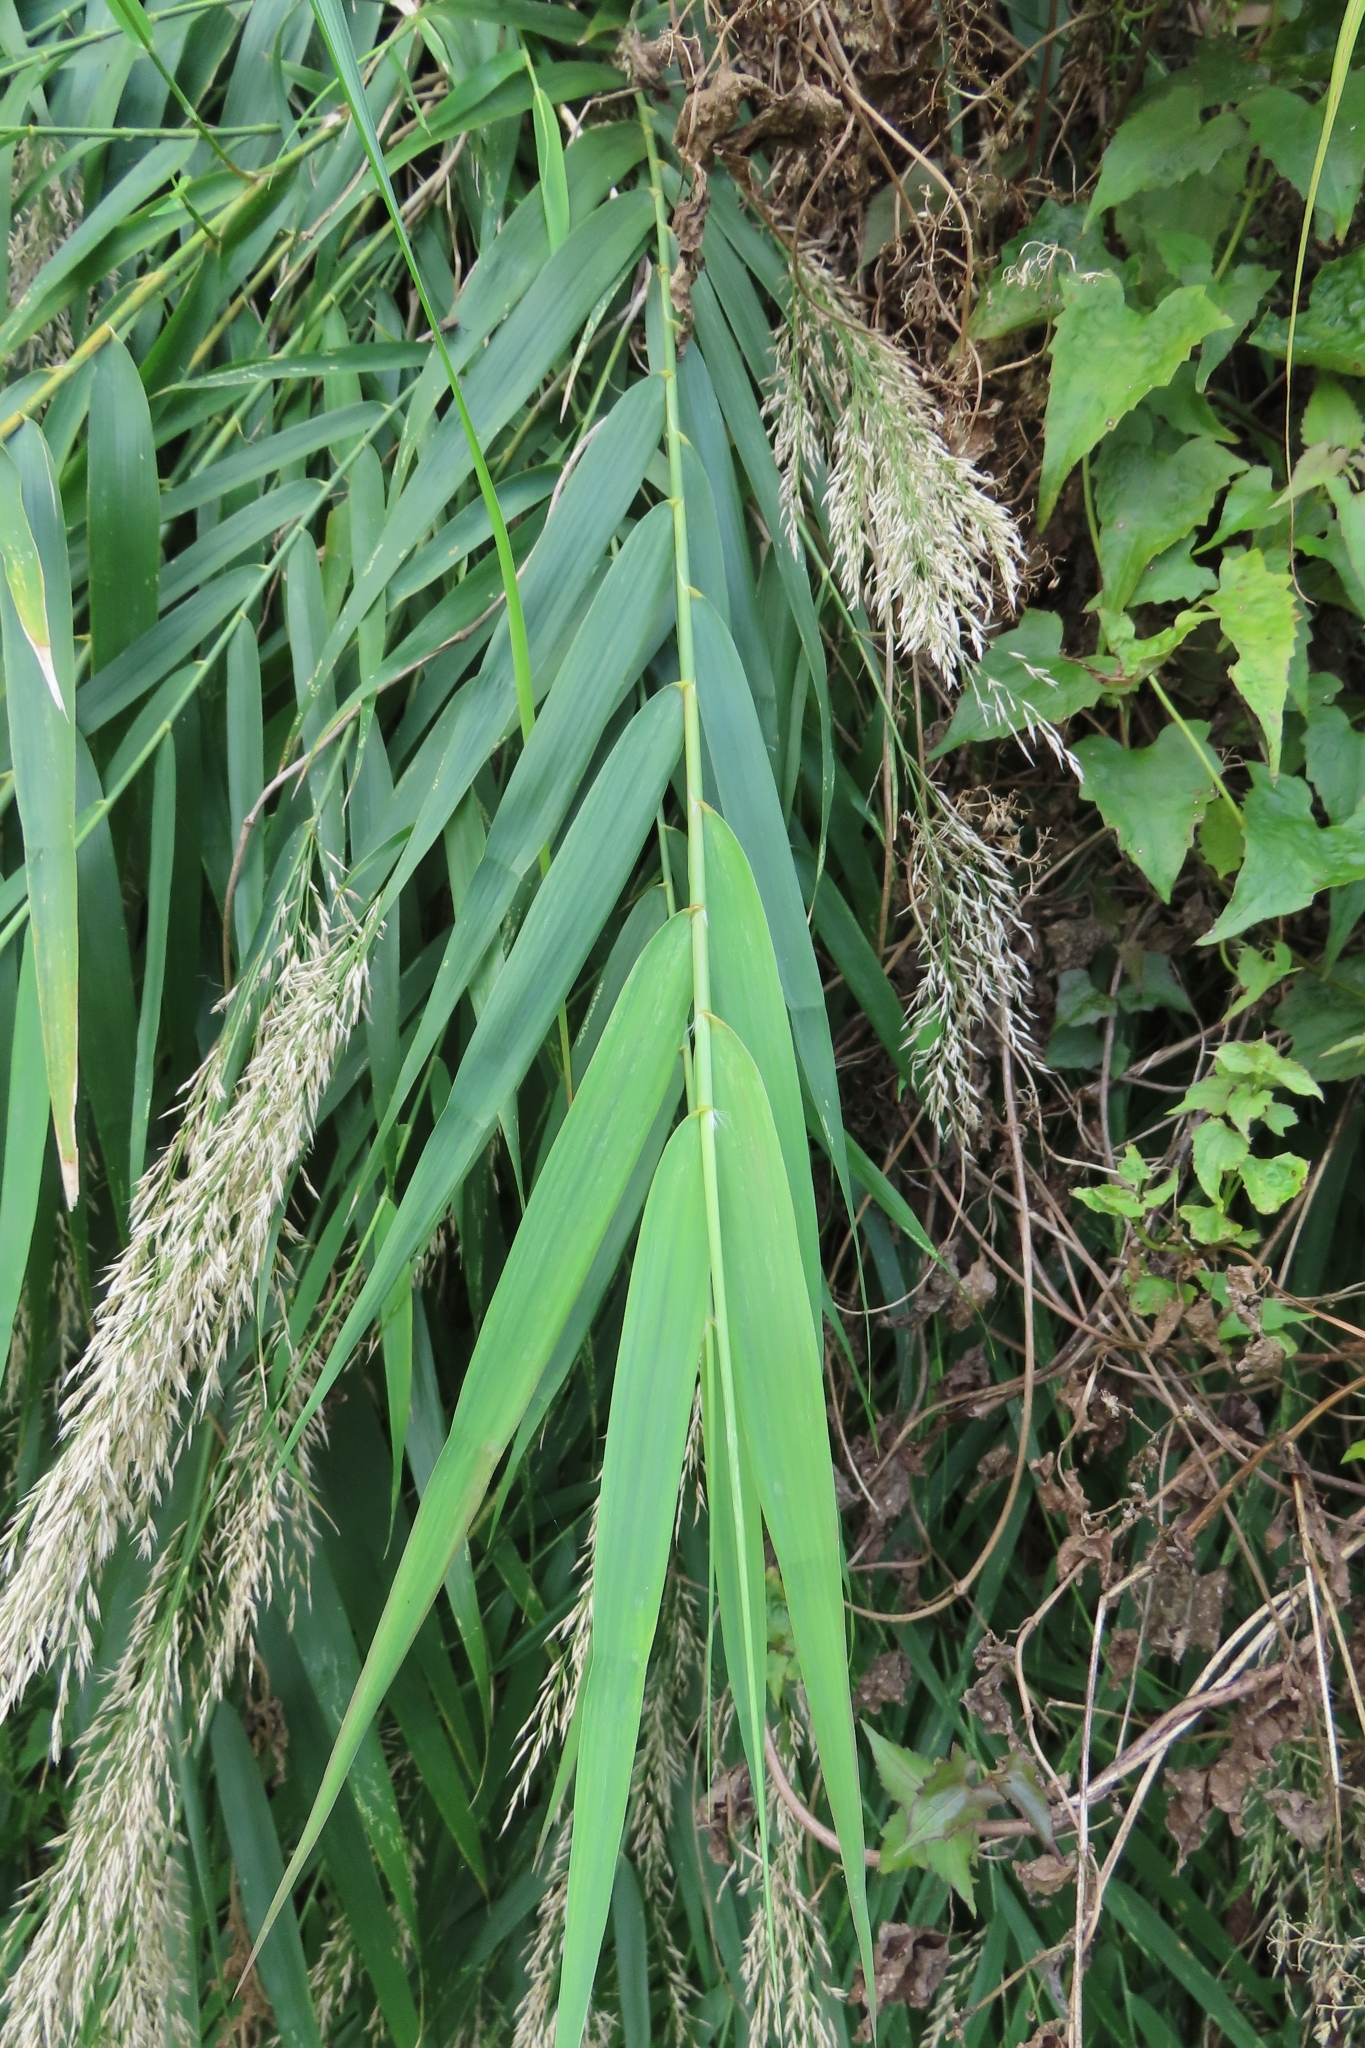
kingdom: Plantae
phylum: Tracheophyta
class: Liliopsida
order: Poales
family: Poaceae
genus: Arundo
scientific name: Arundo formosana
